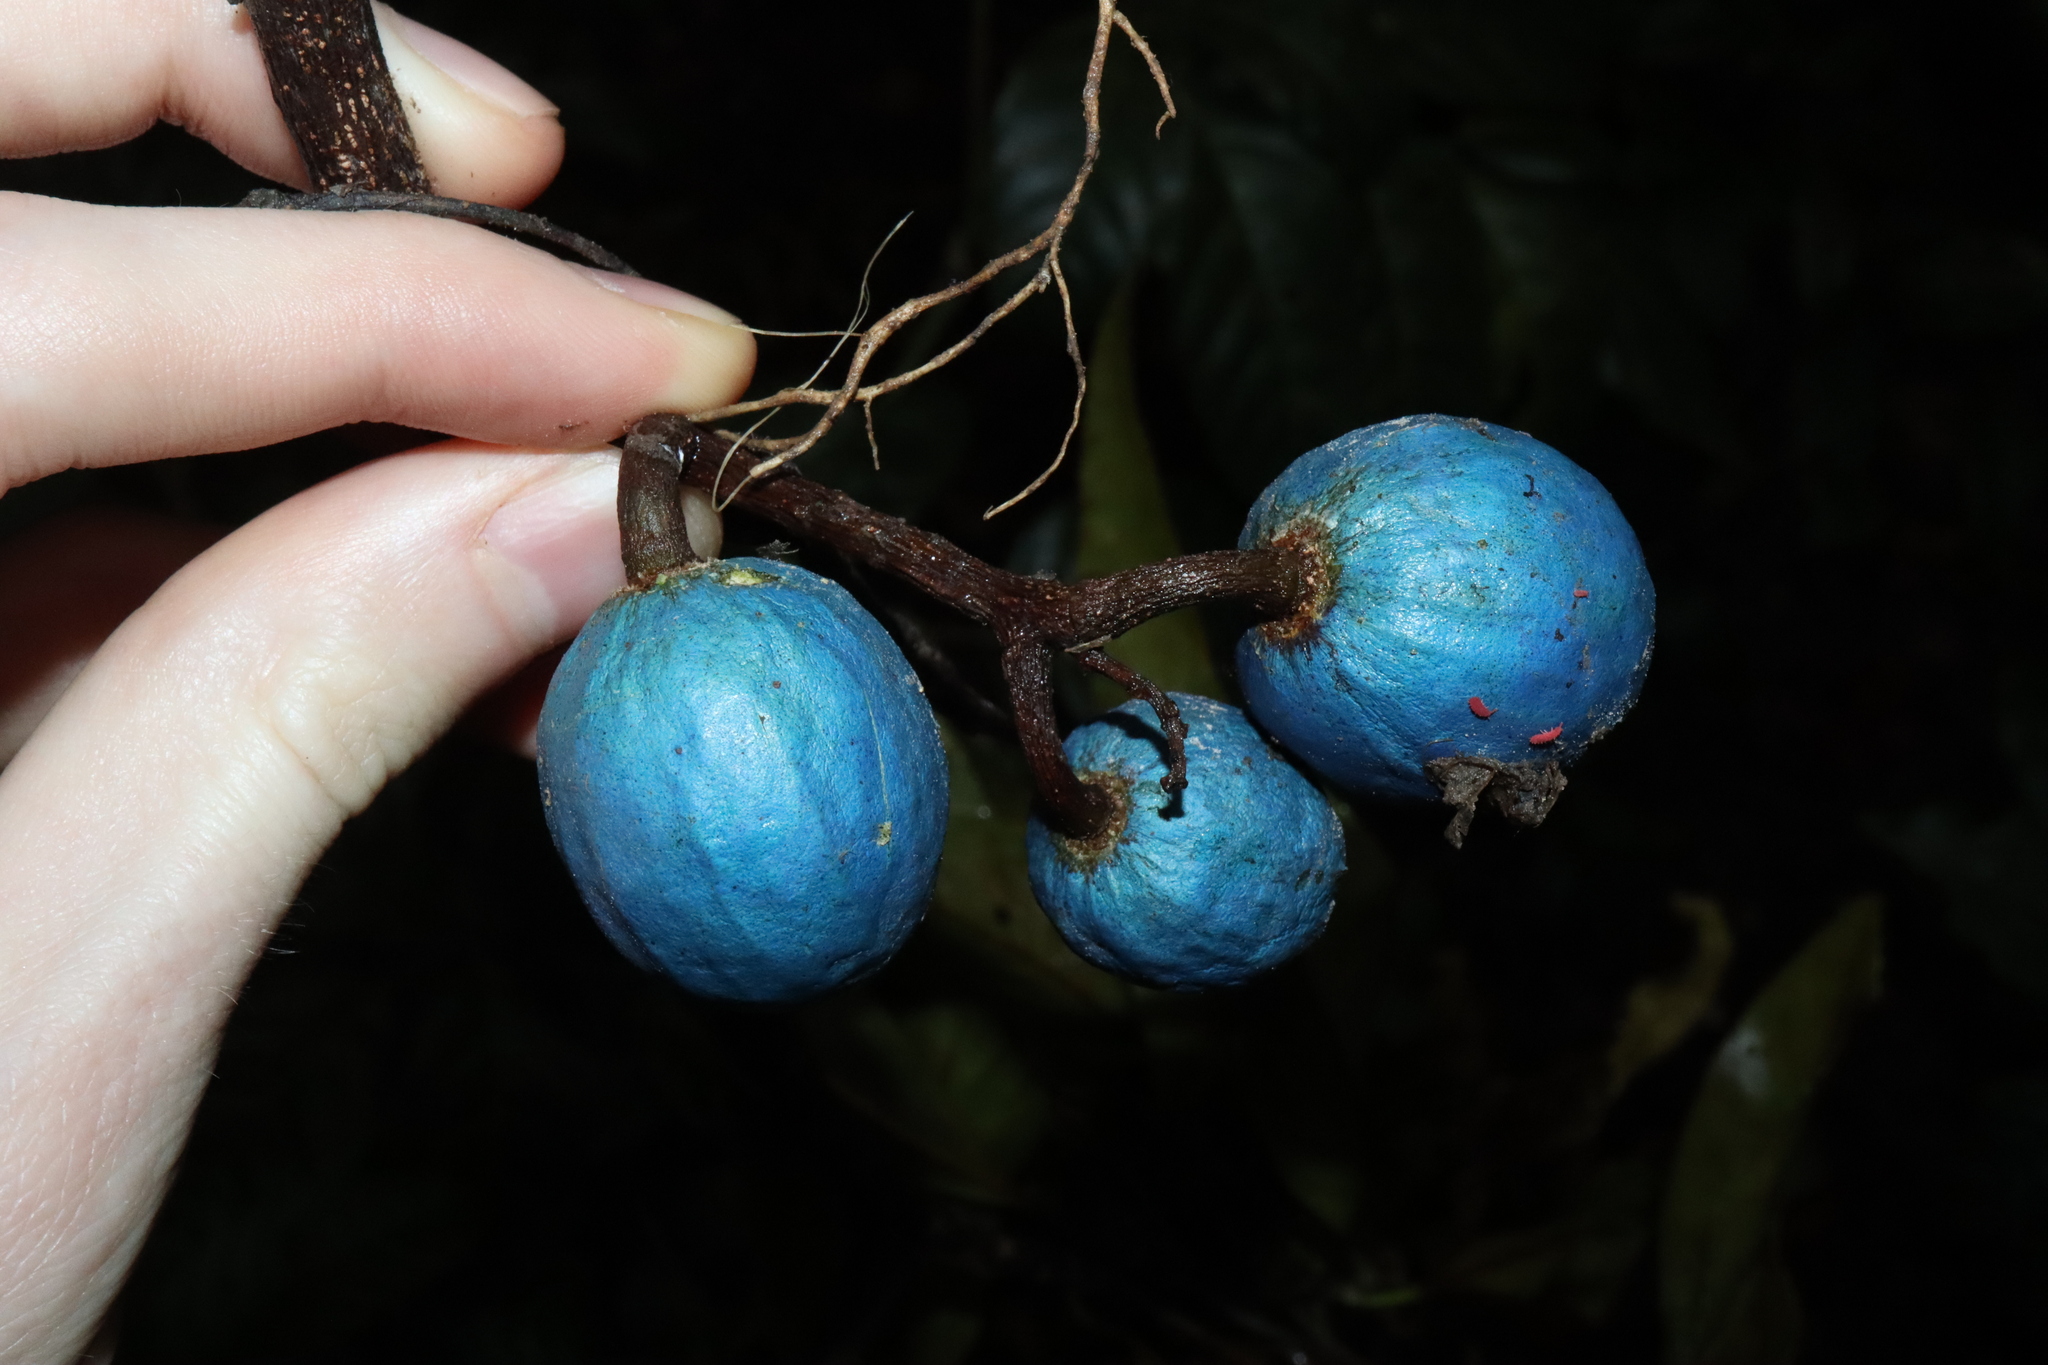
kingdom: Plantae
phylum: Tracheophyta
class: Magnoliopsida
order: Oxalidales
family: Elaeocarpaceae
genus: Elaeocarpus
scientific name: Elaeocarpus angustifolius
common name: Blue marble tree
